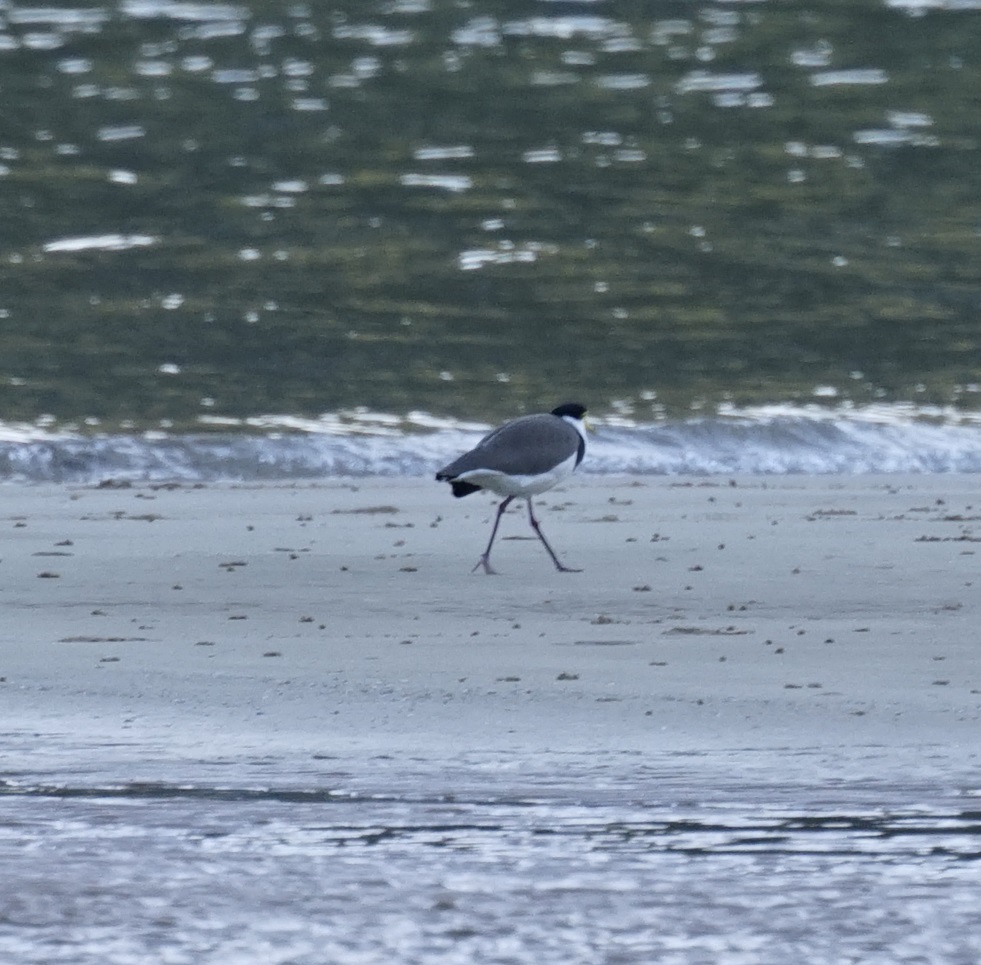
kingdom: Animalia
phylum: Chordata
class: Aves
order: Charadriiformes
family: Charadriidae
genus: Vanellus
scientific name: Vanellus miles
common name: Masked lapwing
